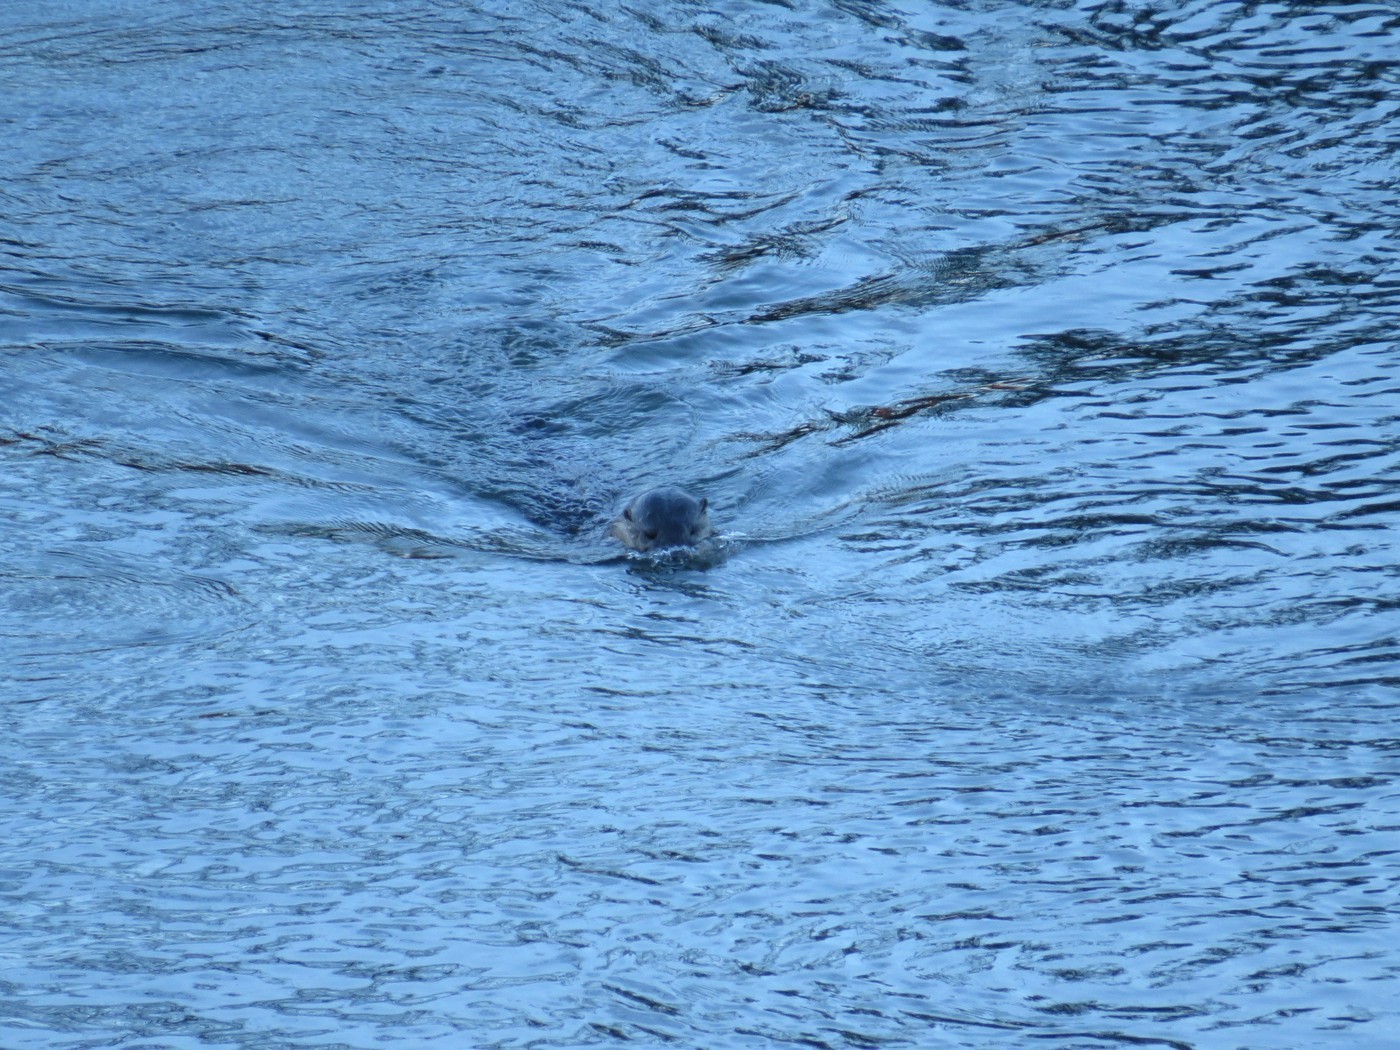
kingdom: Animalia
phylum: Chordata
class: Mammalia
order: Carnivora
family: Mustelidae
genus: Lontra
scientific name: Lontra canadensis
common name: North american river otter
